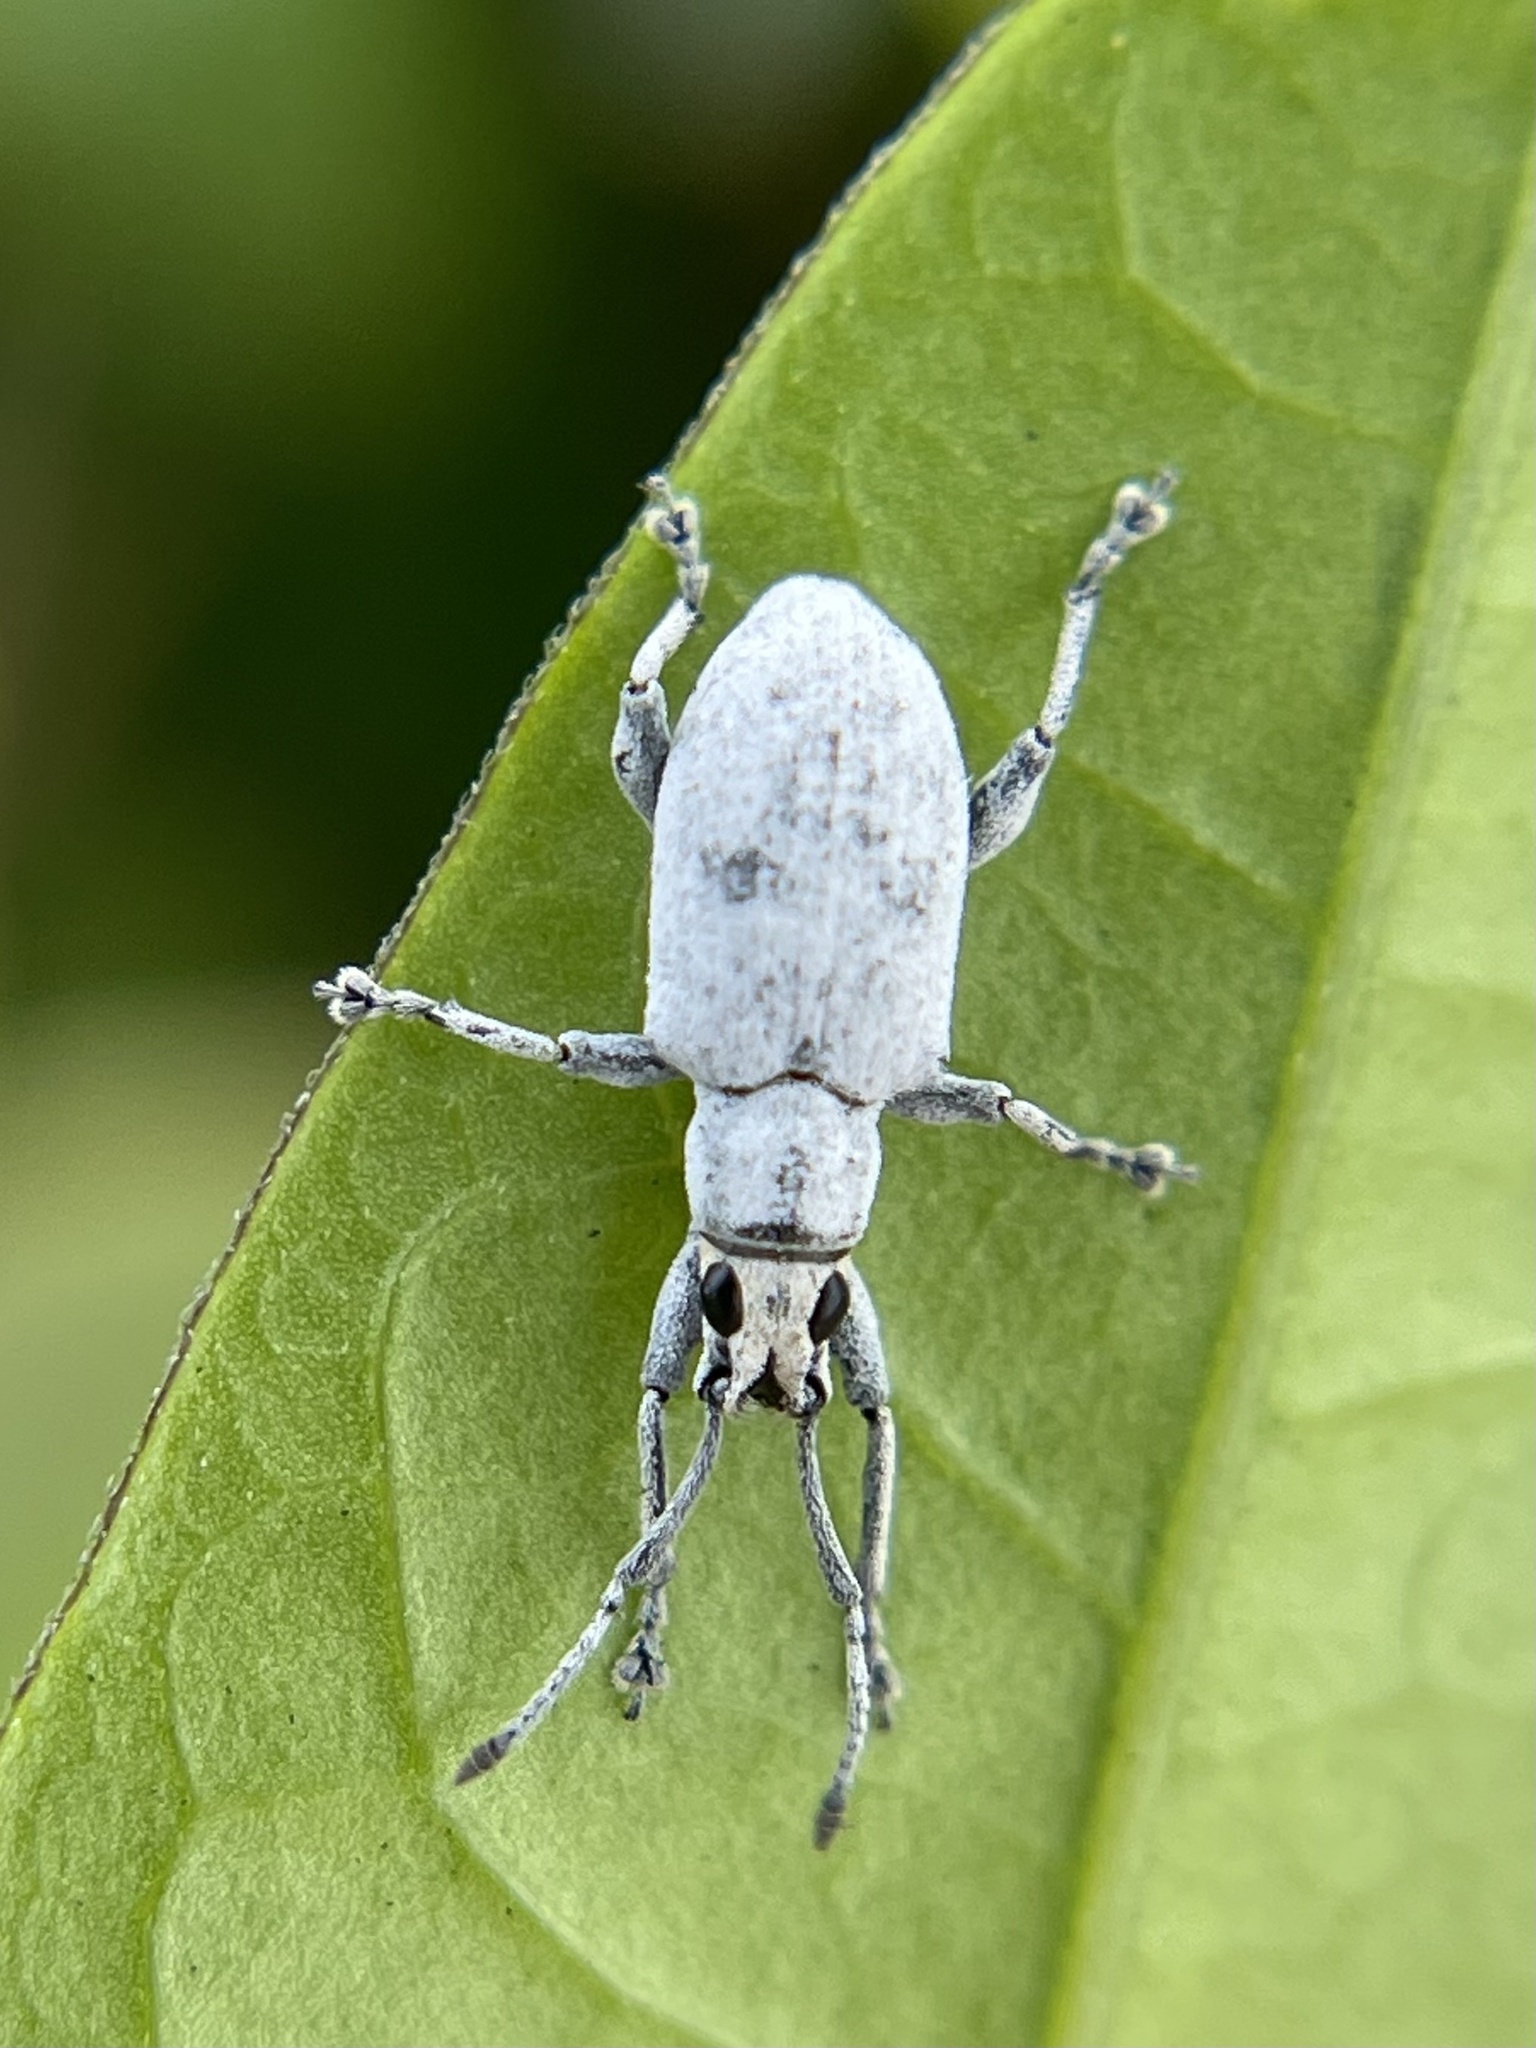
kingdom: Animalia
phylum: Arthropoda
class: Insecta
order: Coleoptera
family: Curculionidae
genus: Myllocerus
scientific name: Myllocerus undecimpustulatus
